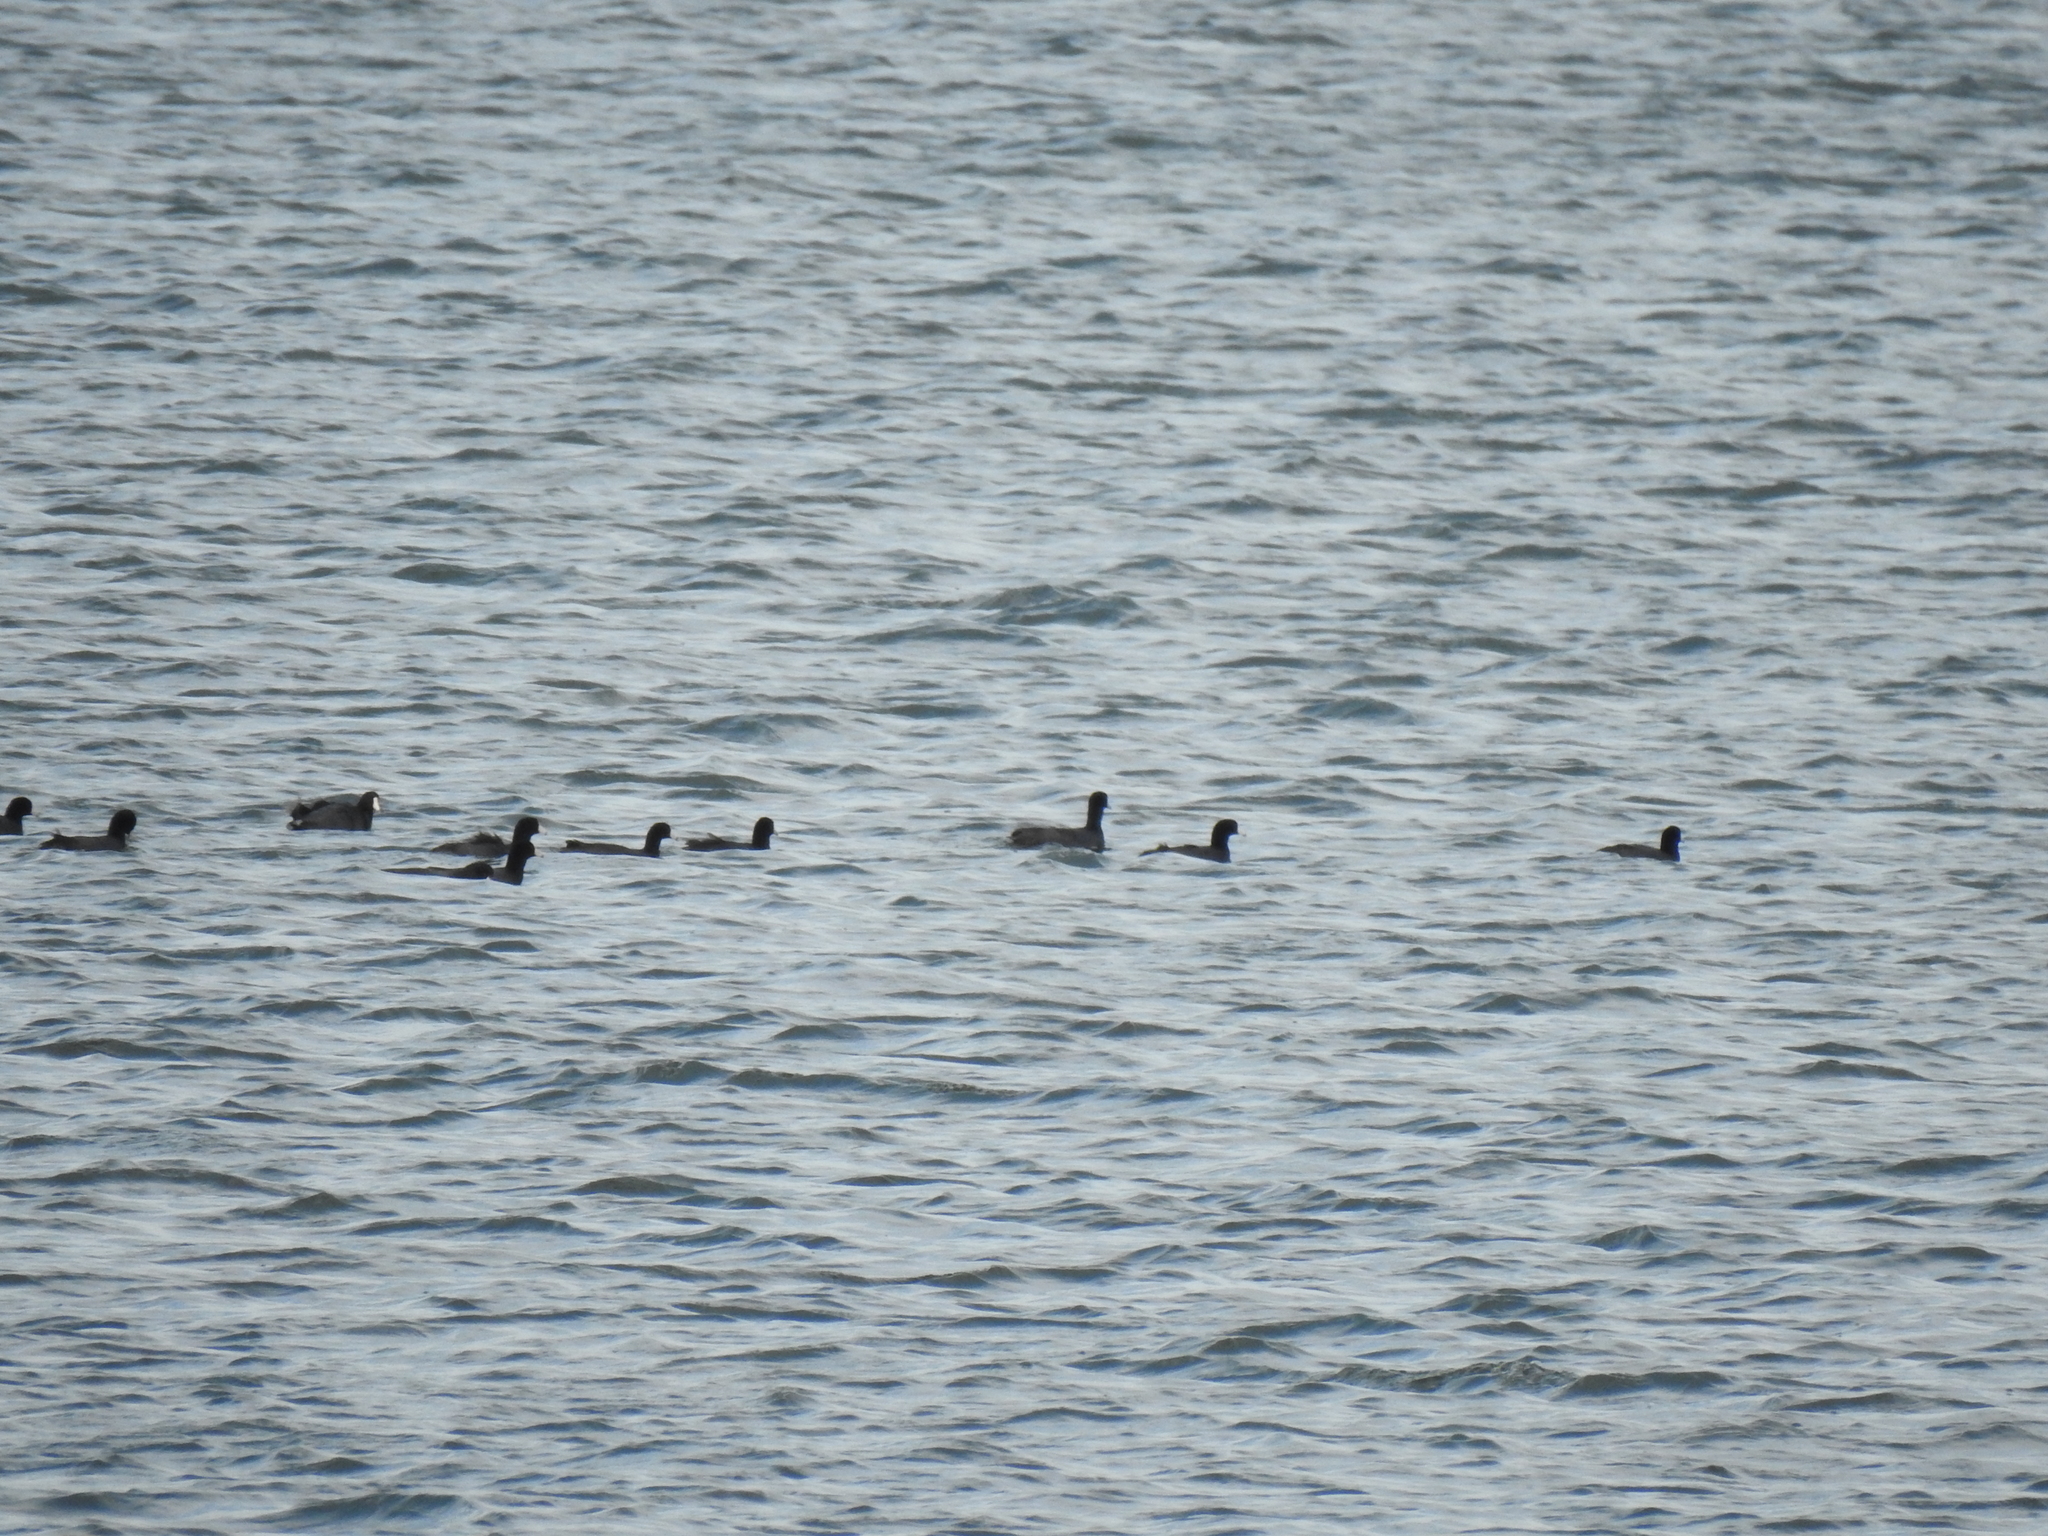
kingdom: Animalia
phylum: Chordata
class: Aves
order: Gruiformes
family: Rallidae
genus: Fulica
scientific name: Fulica americana
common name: American coot
